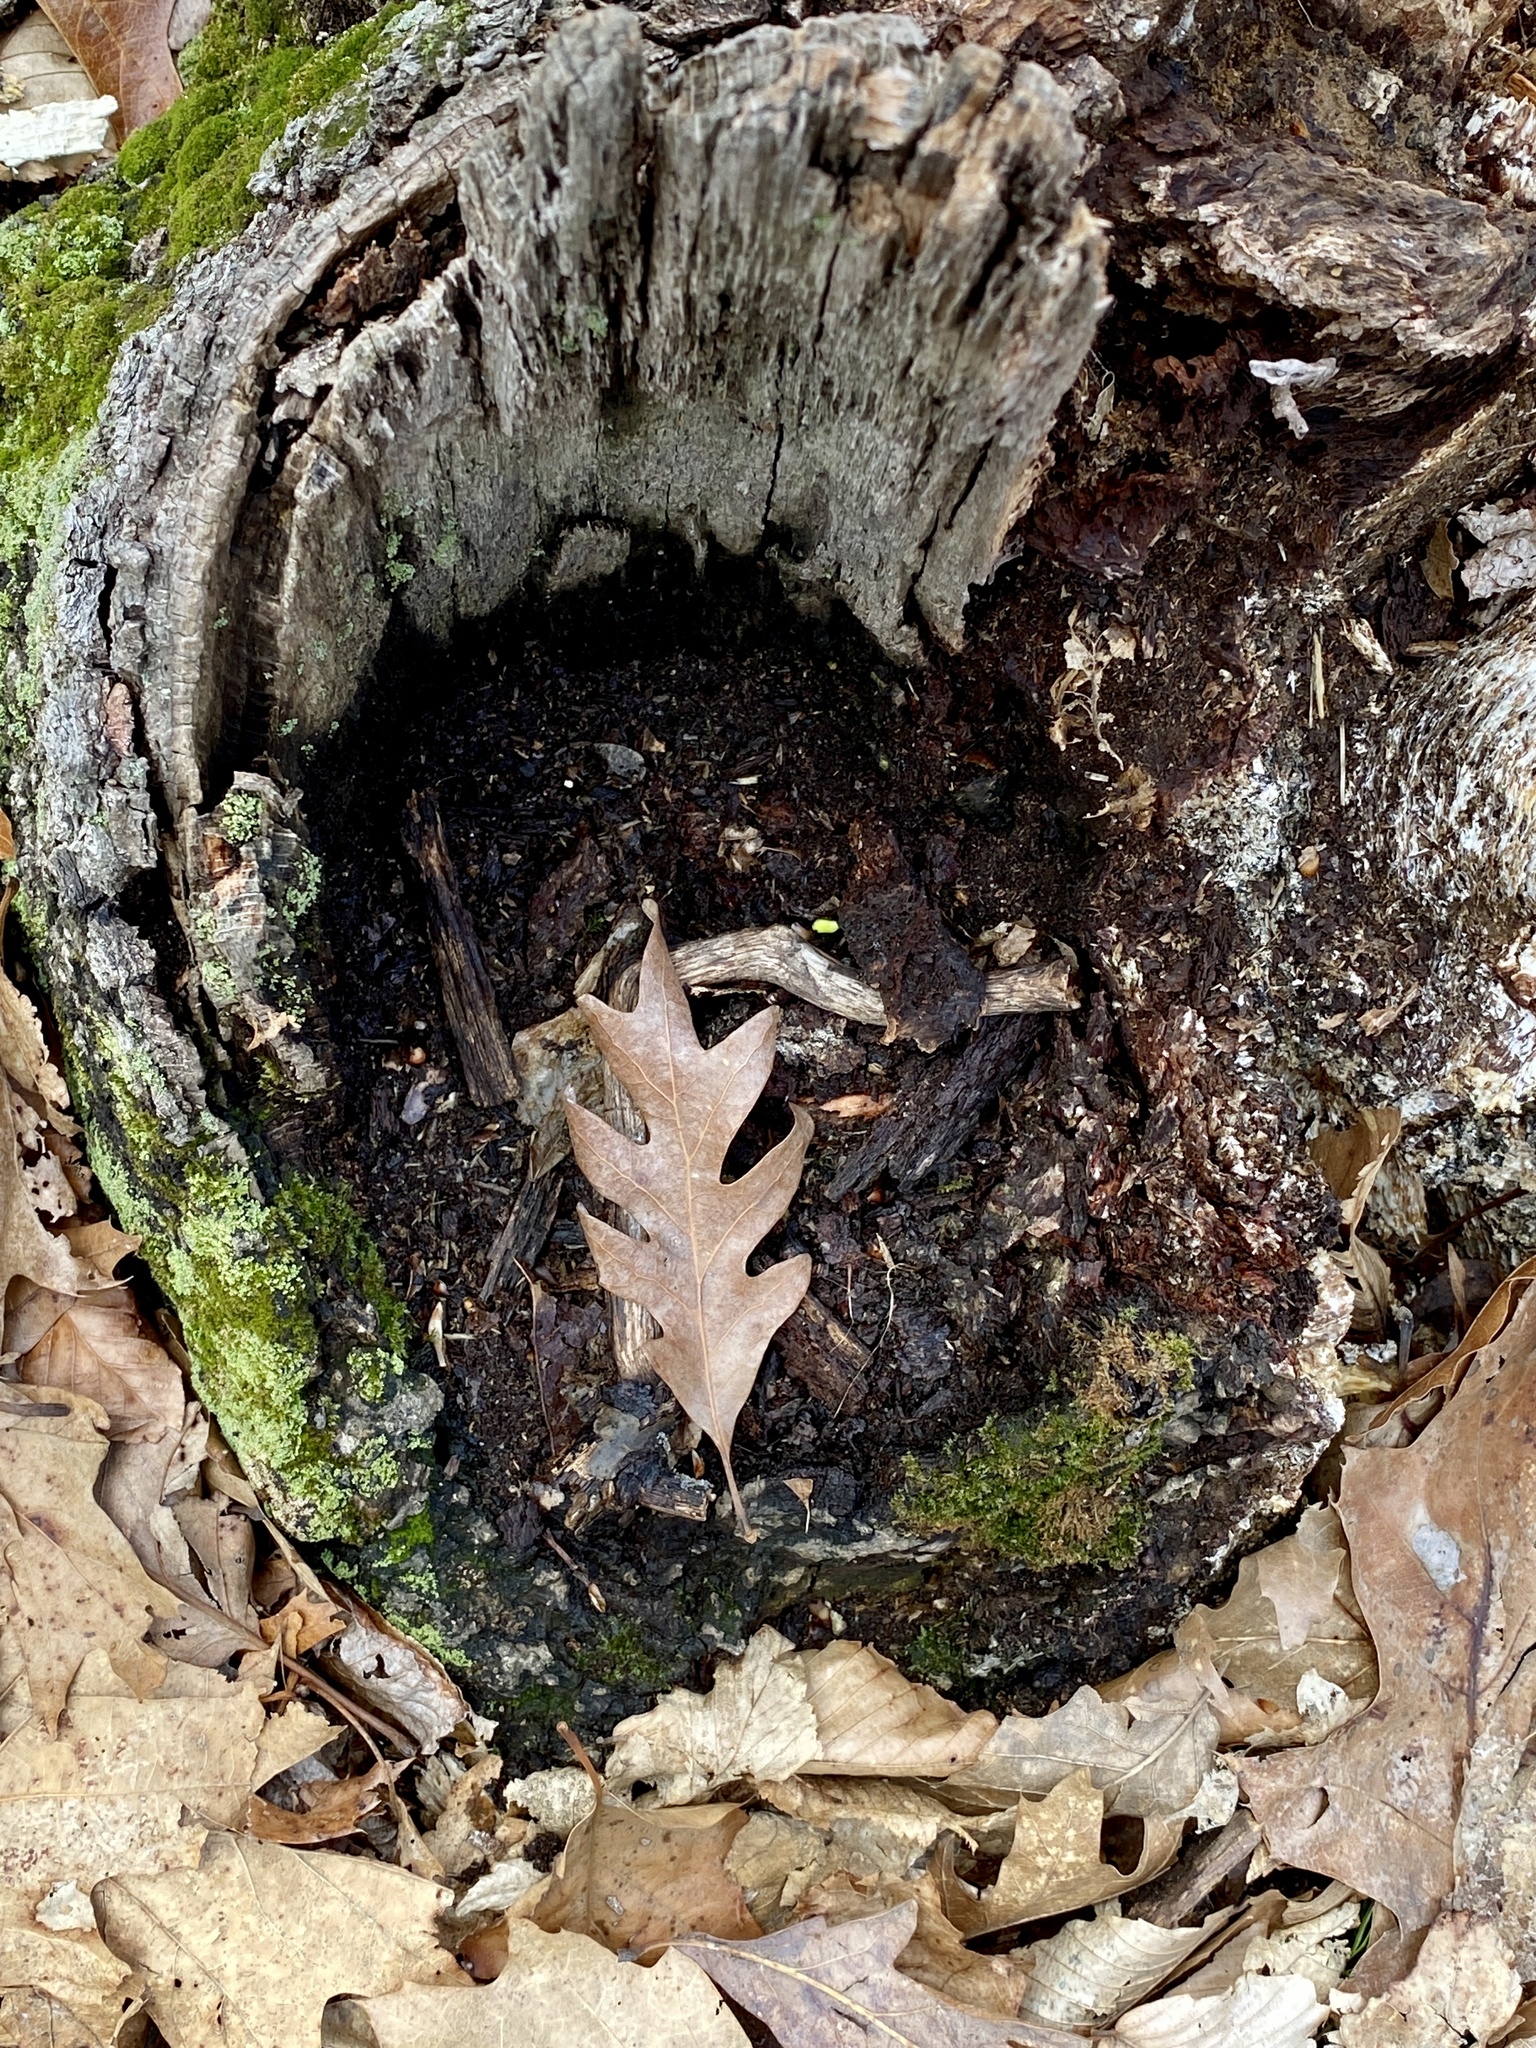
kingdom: Plantae
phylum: Tracheophyta
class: Magnoliopsida
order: Fagales
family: Fagaceae
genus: Quercus
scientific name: Quercus alba
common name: White oak
